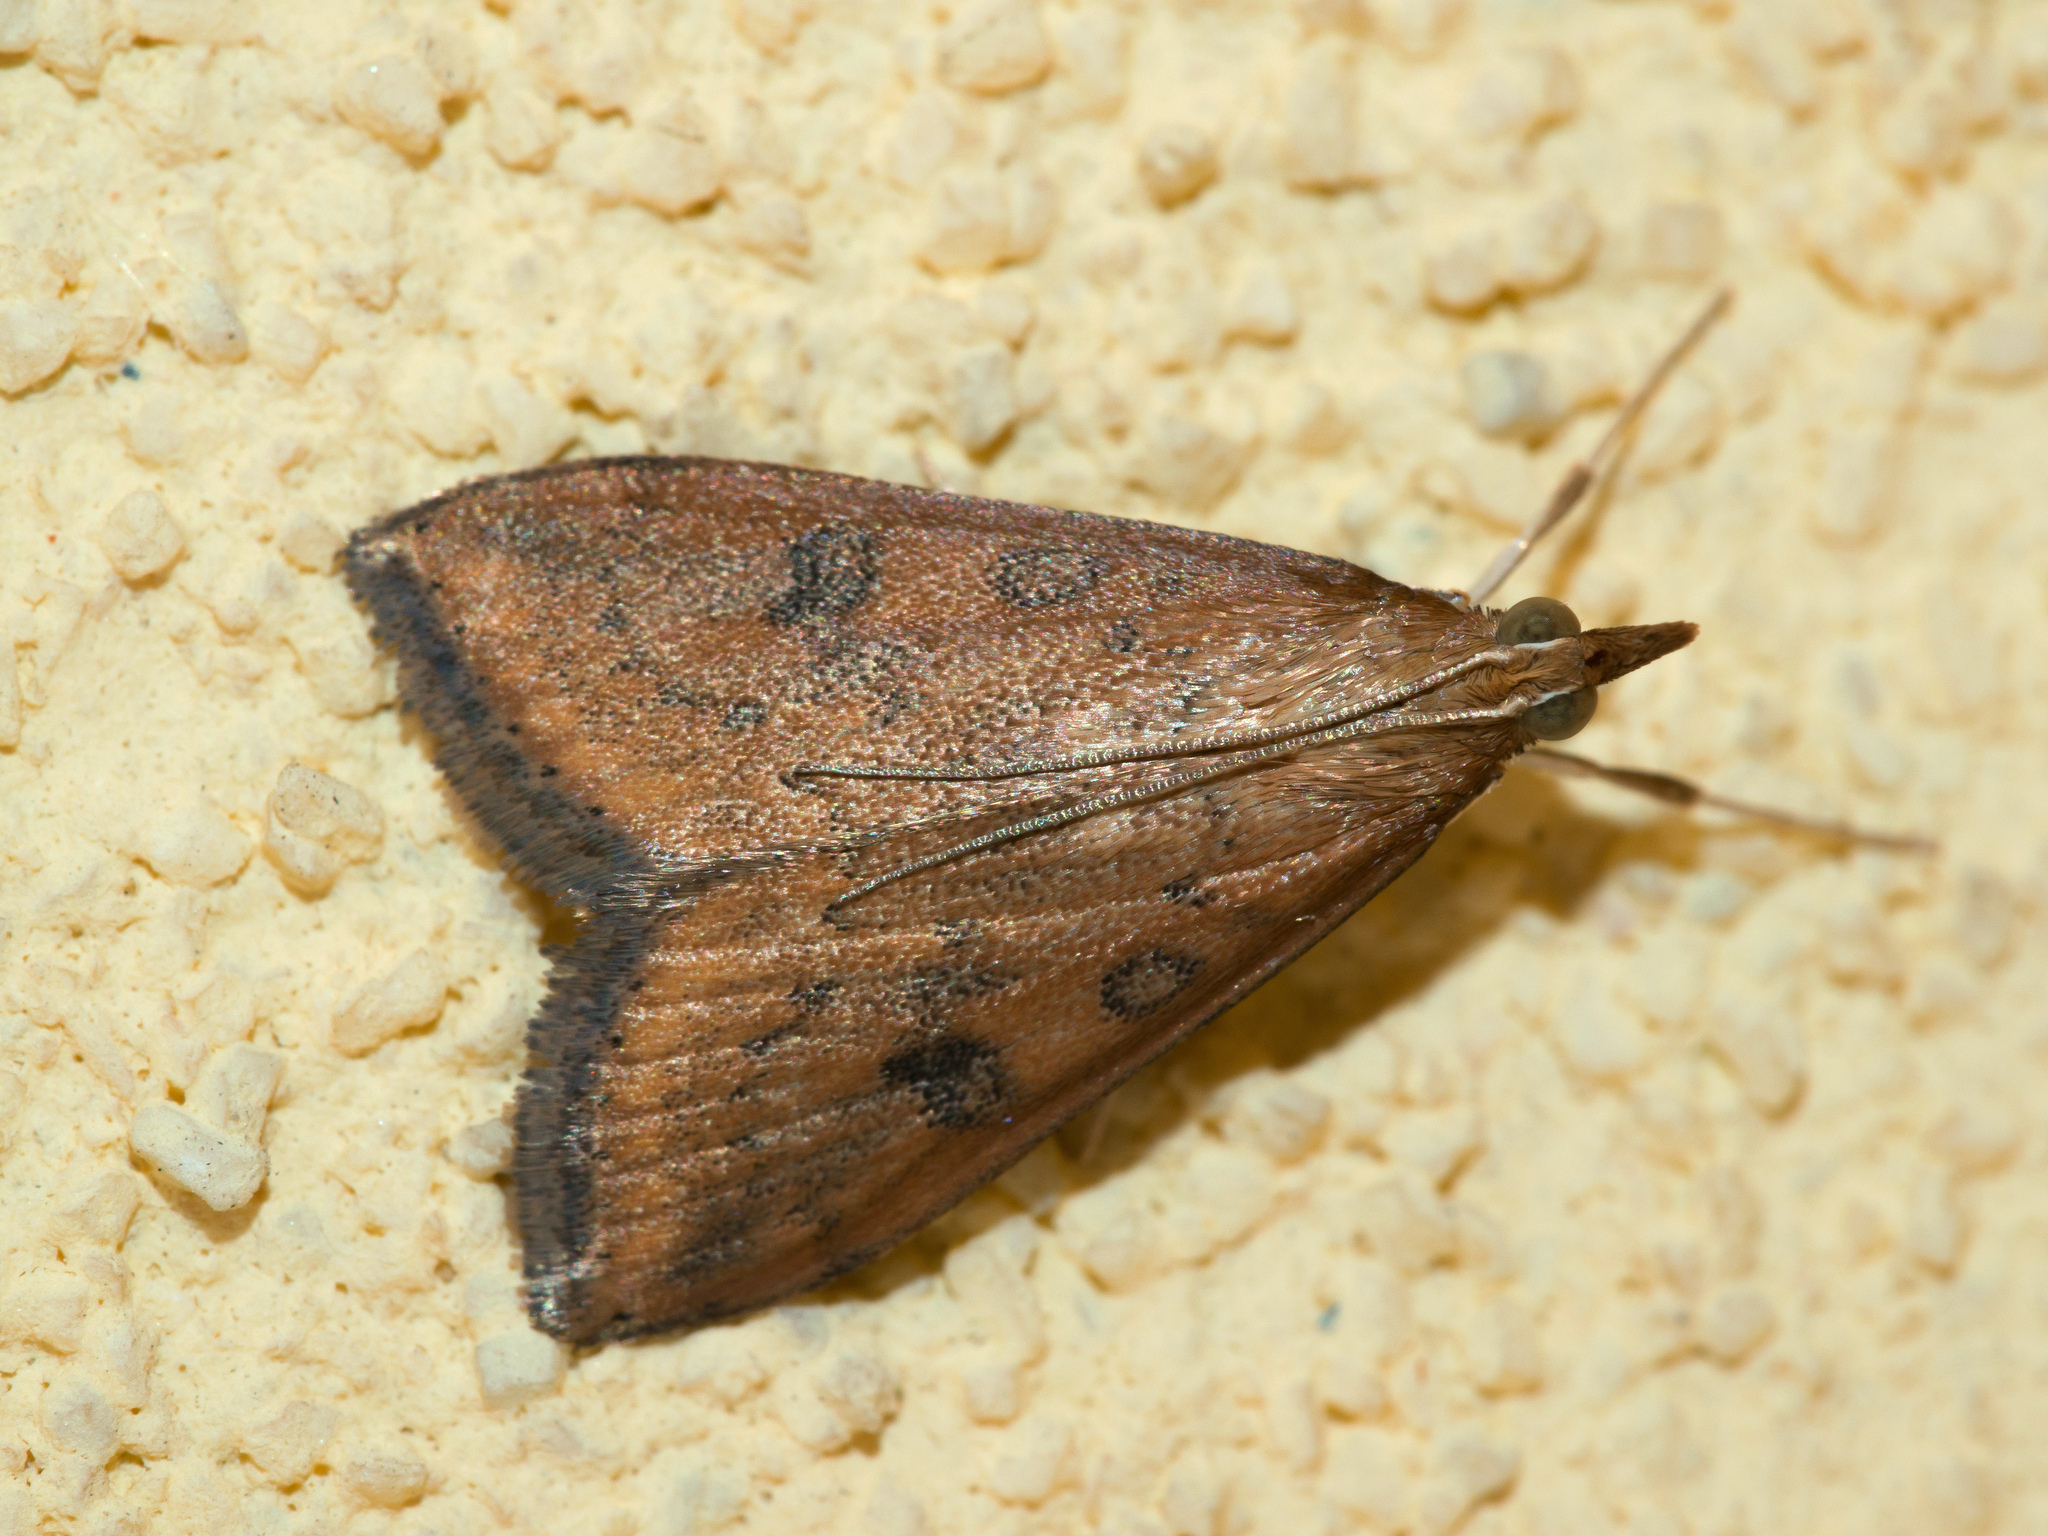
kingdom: Animalia
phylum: Arthropoda
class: Insecta
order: Lepidoptera
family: Crambidae
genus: Udea
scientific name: Udea ferrugalis
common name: Rusty dot
